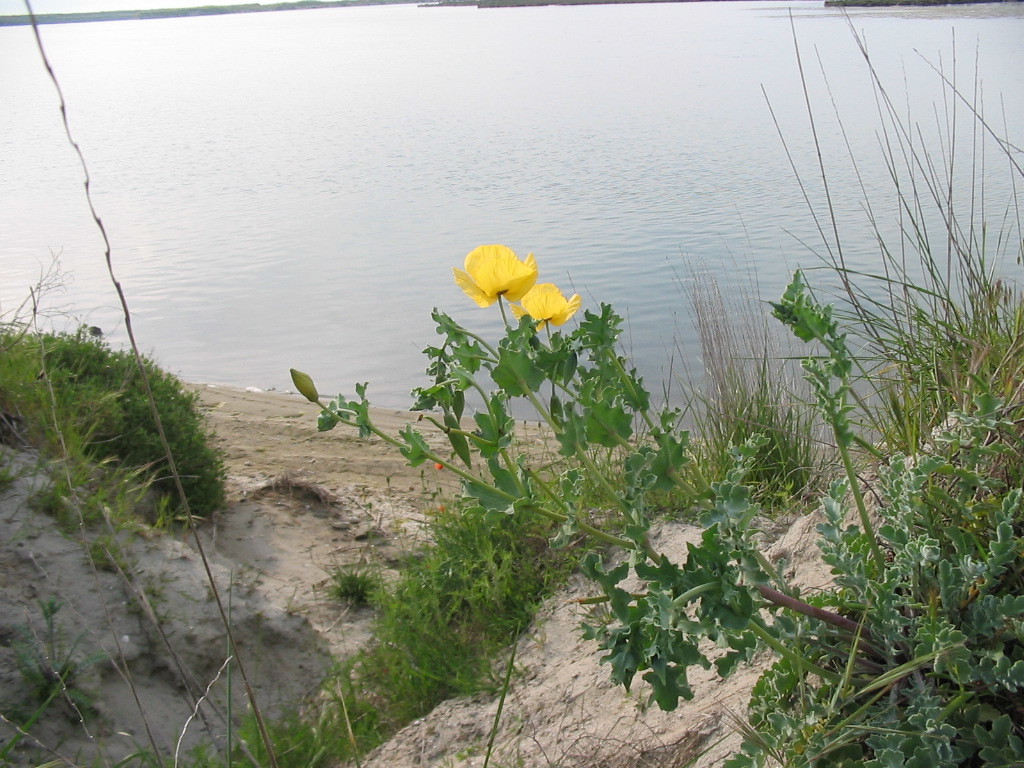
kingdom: Plantae
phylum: Tracheophyta
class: Magnoliopsida
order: Ranunculales
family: Papaveraceae
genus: Glaucium
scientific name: Glaucium flavum
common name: Yellow horned-poppy
